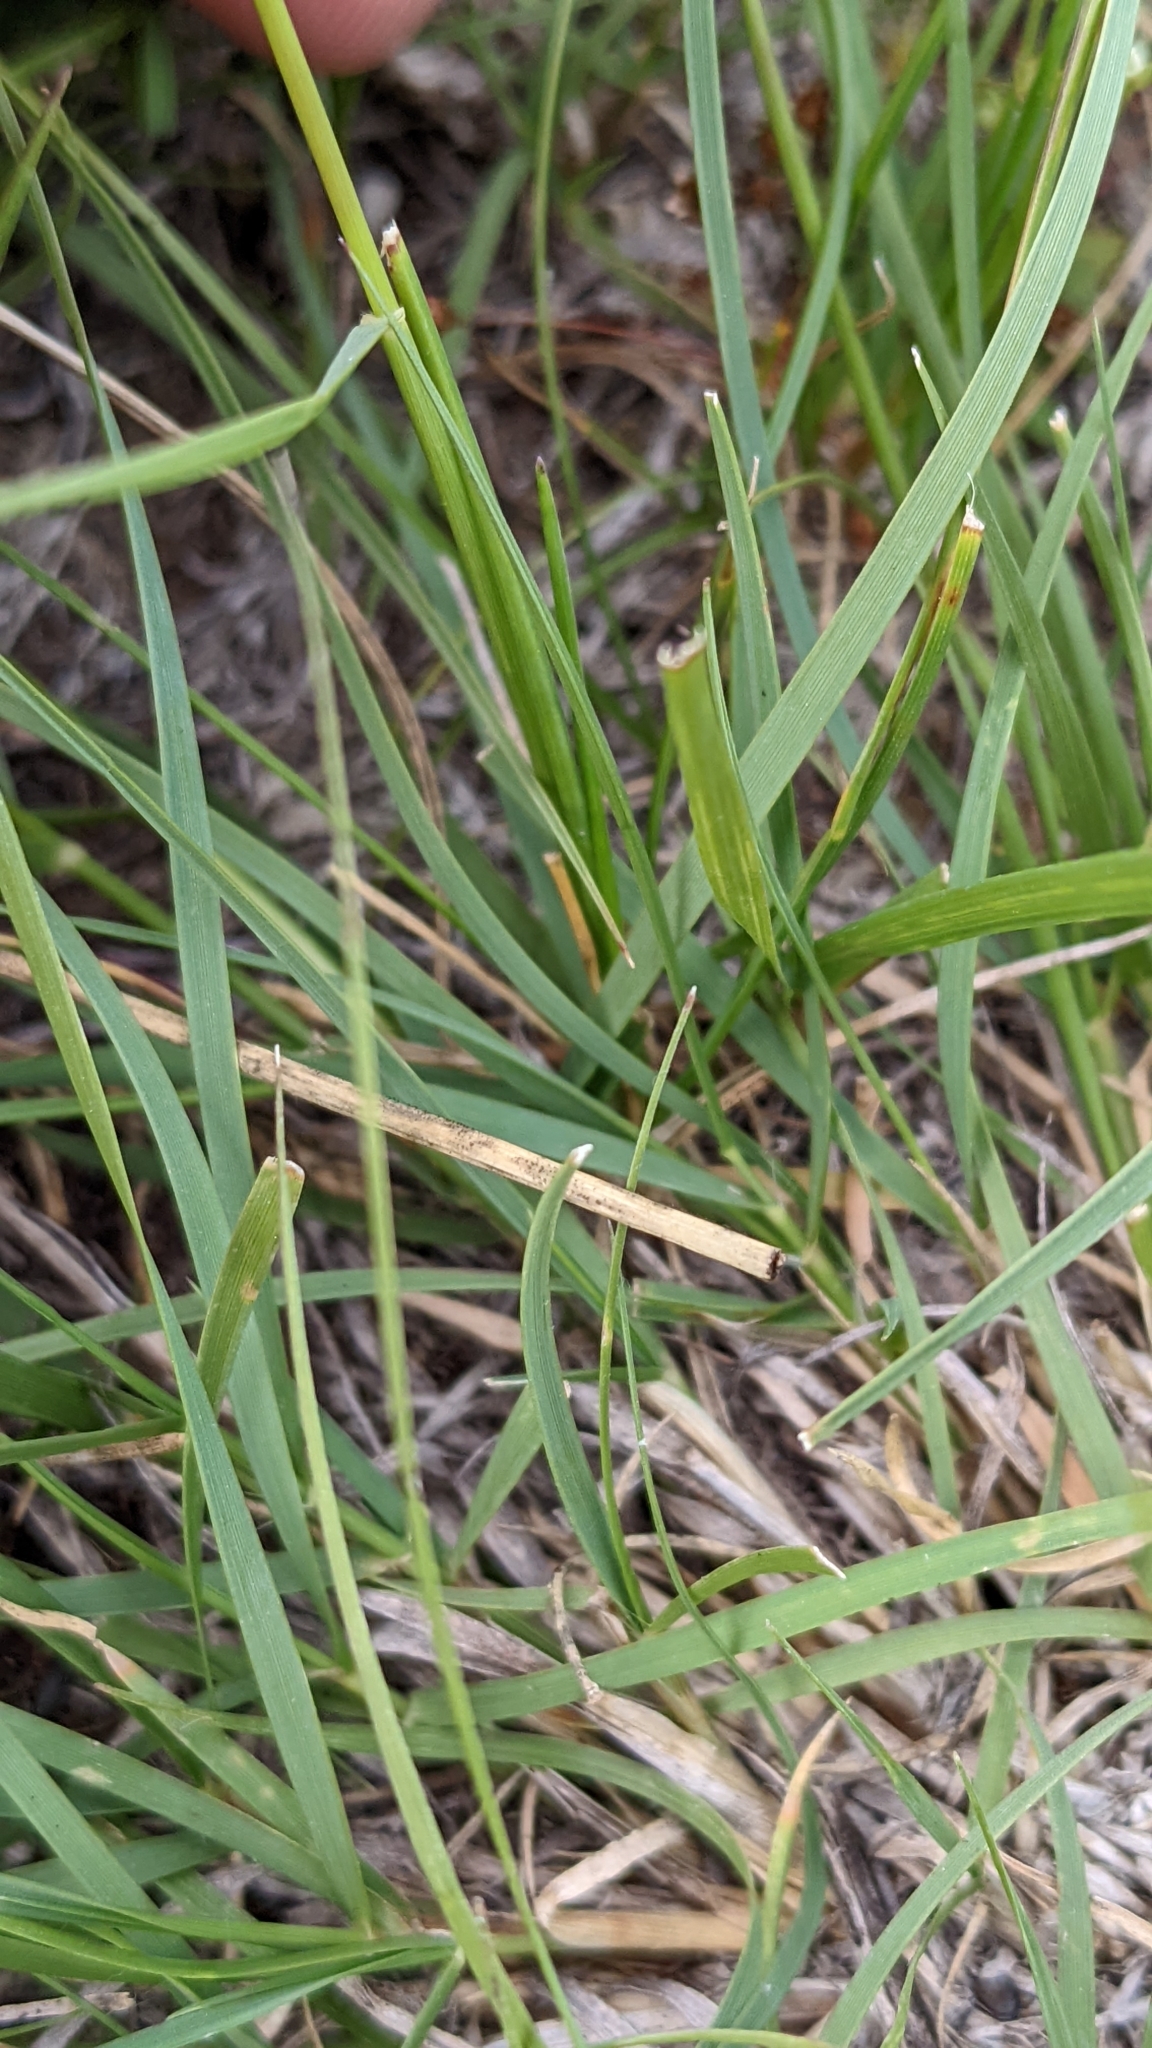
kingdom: Plantae
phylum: Tracheophyta
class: Liliopsida
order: Poales
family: Poaceae
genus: Bouteloua
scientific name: Bouteloua gracilis
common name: Blue grama
